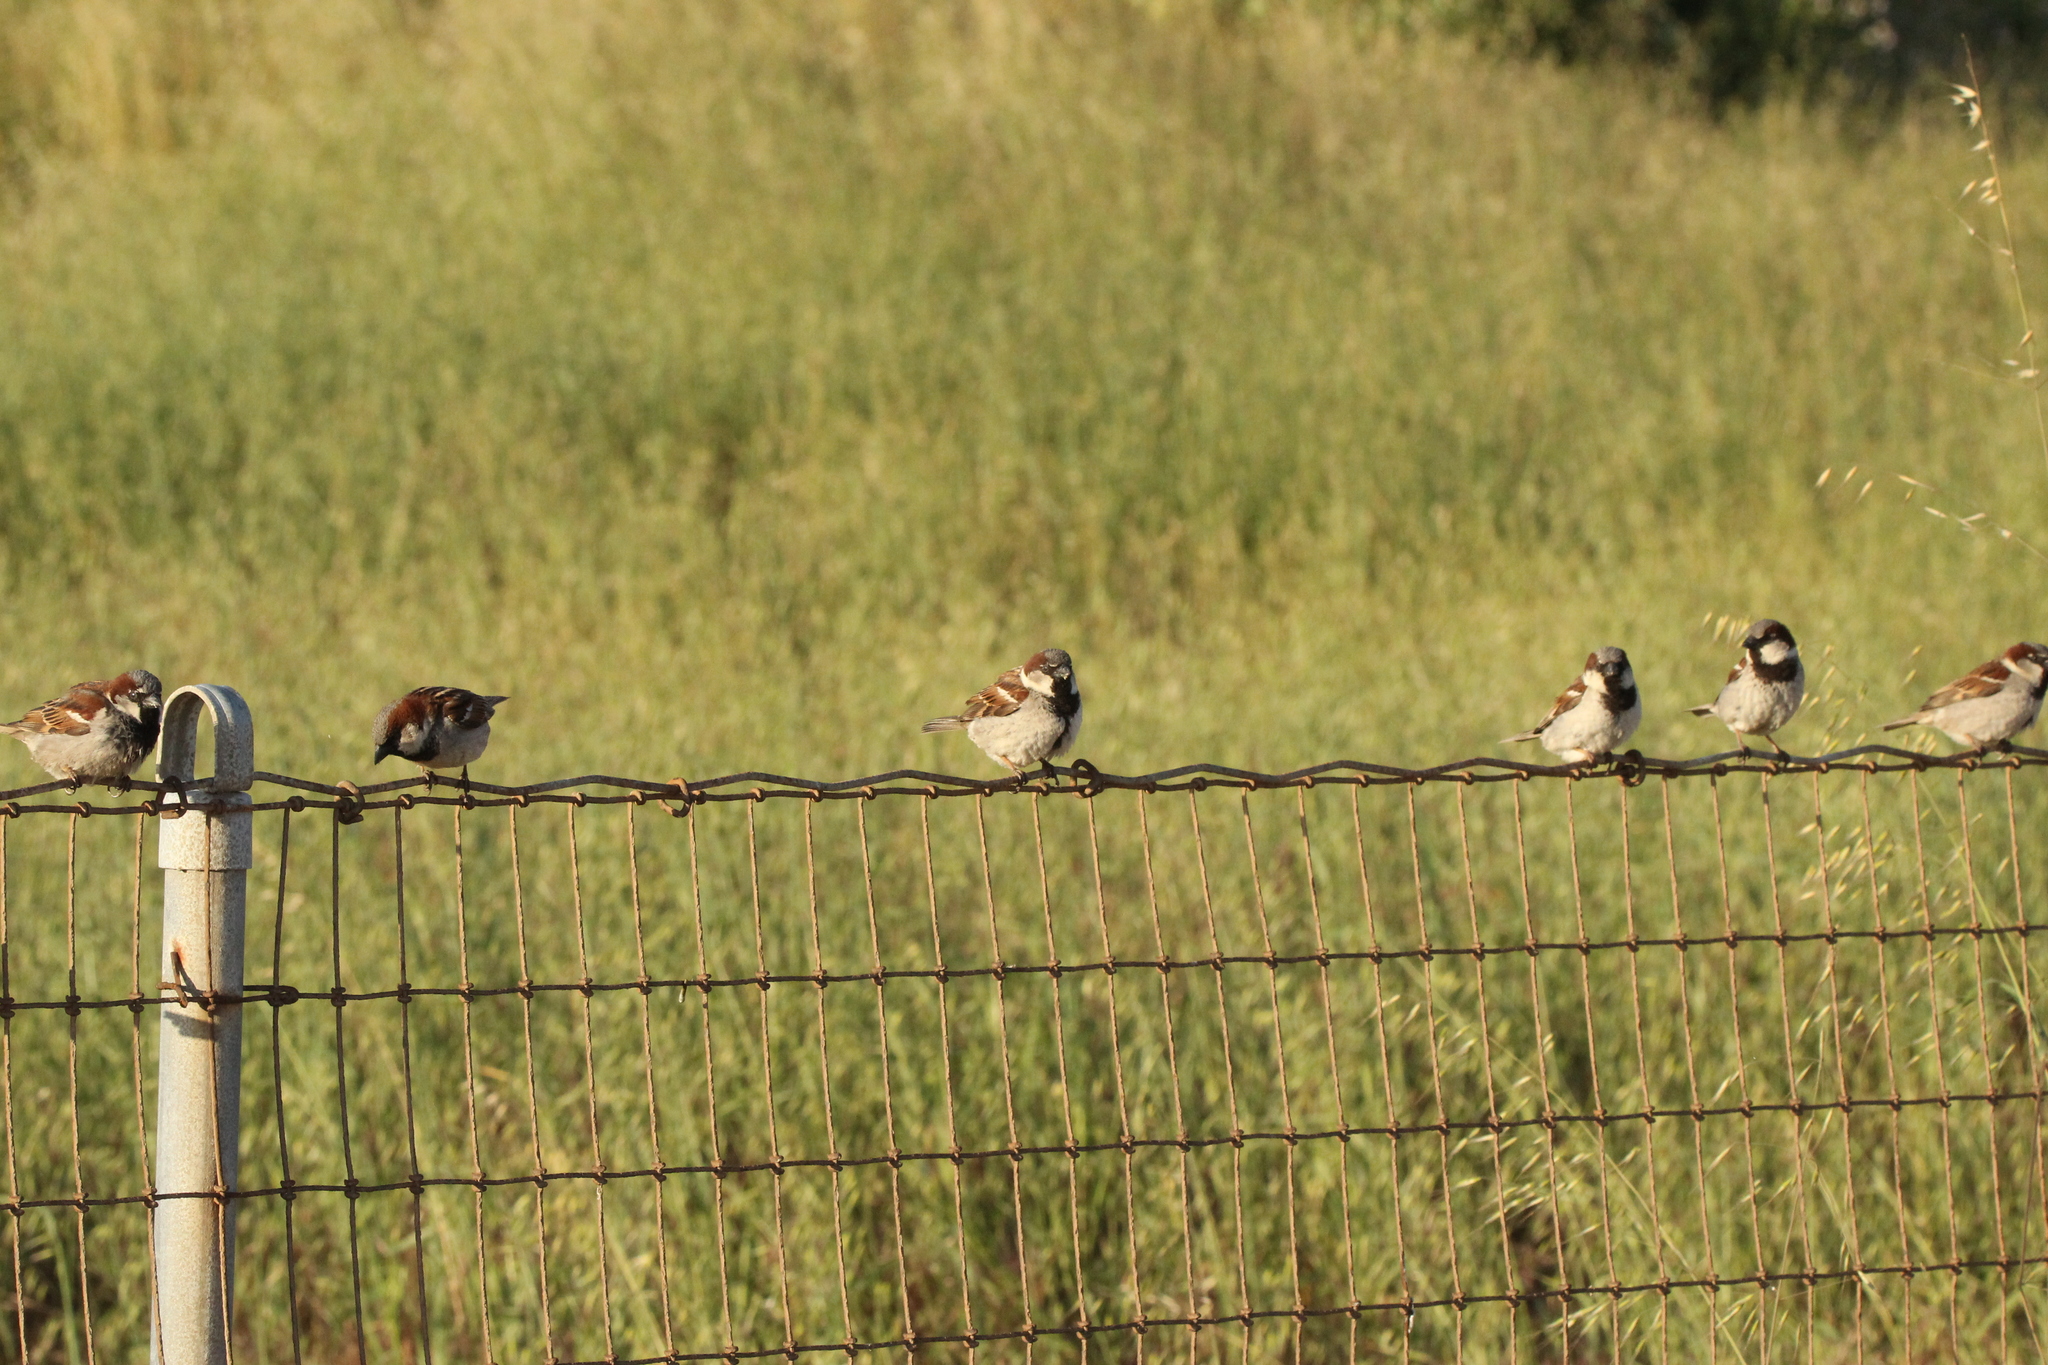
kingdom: Animalia
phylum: Chordata
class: Aves
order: Passeriformes
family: Passeridae
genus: Passer
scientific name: Passer domesticus
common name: House sparrow
